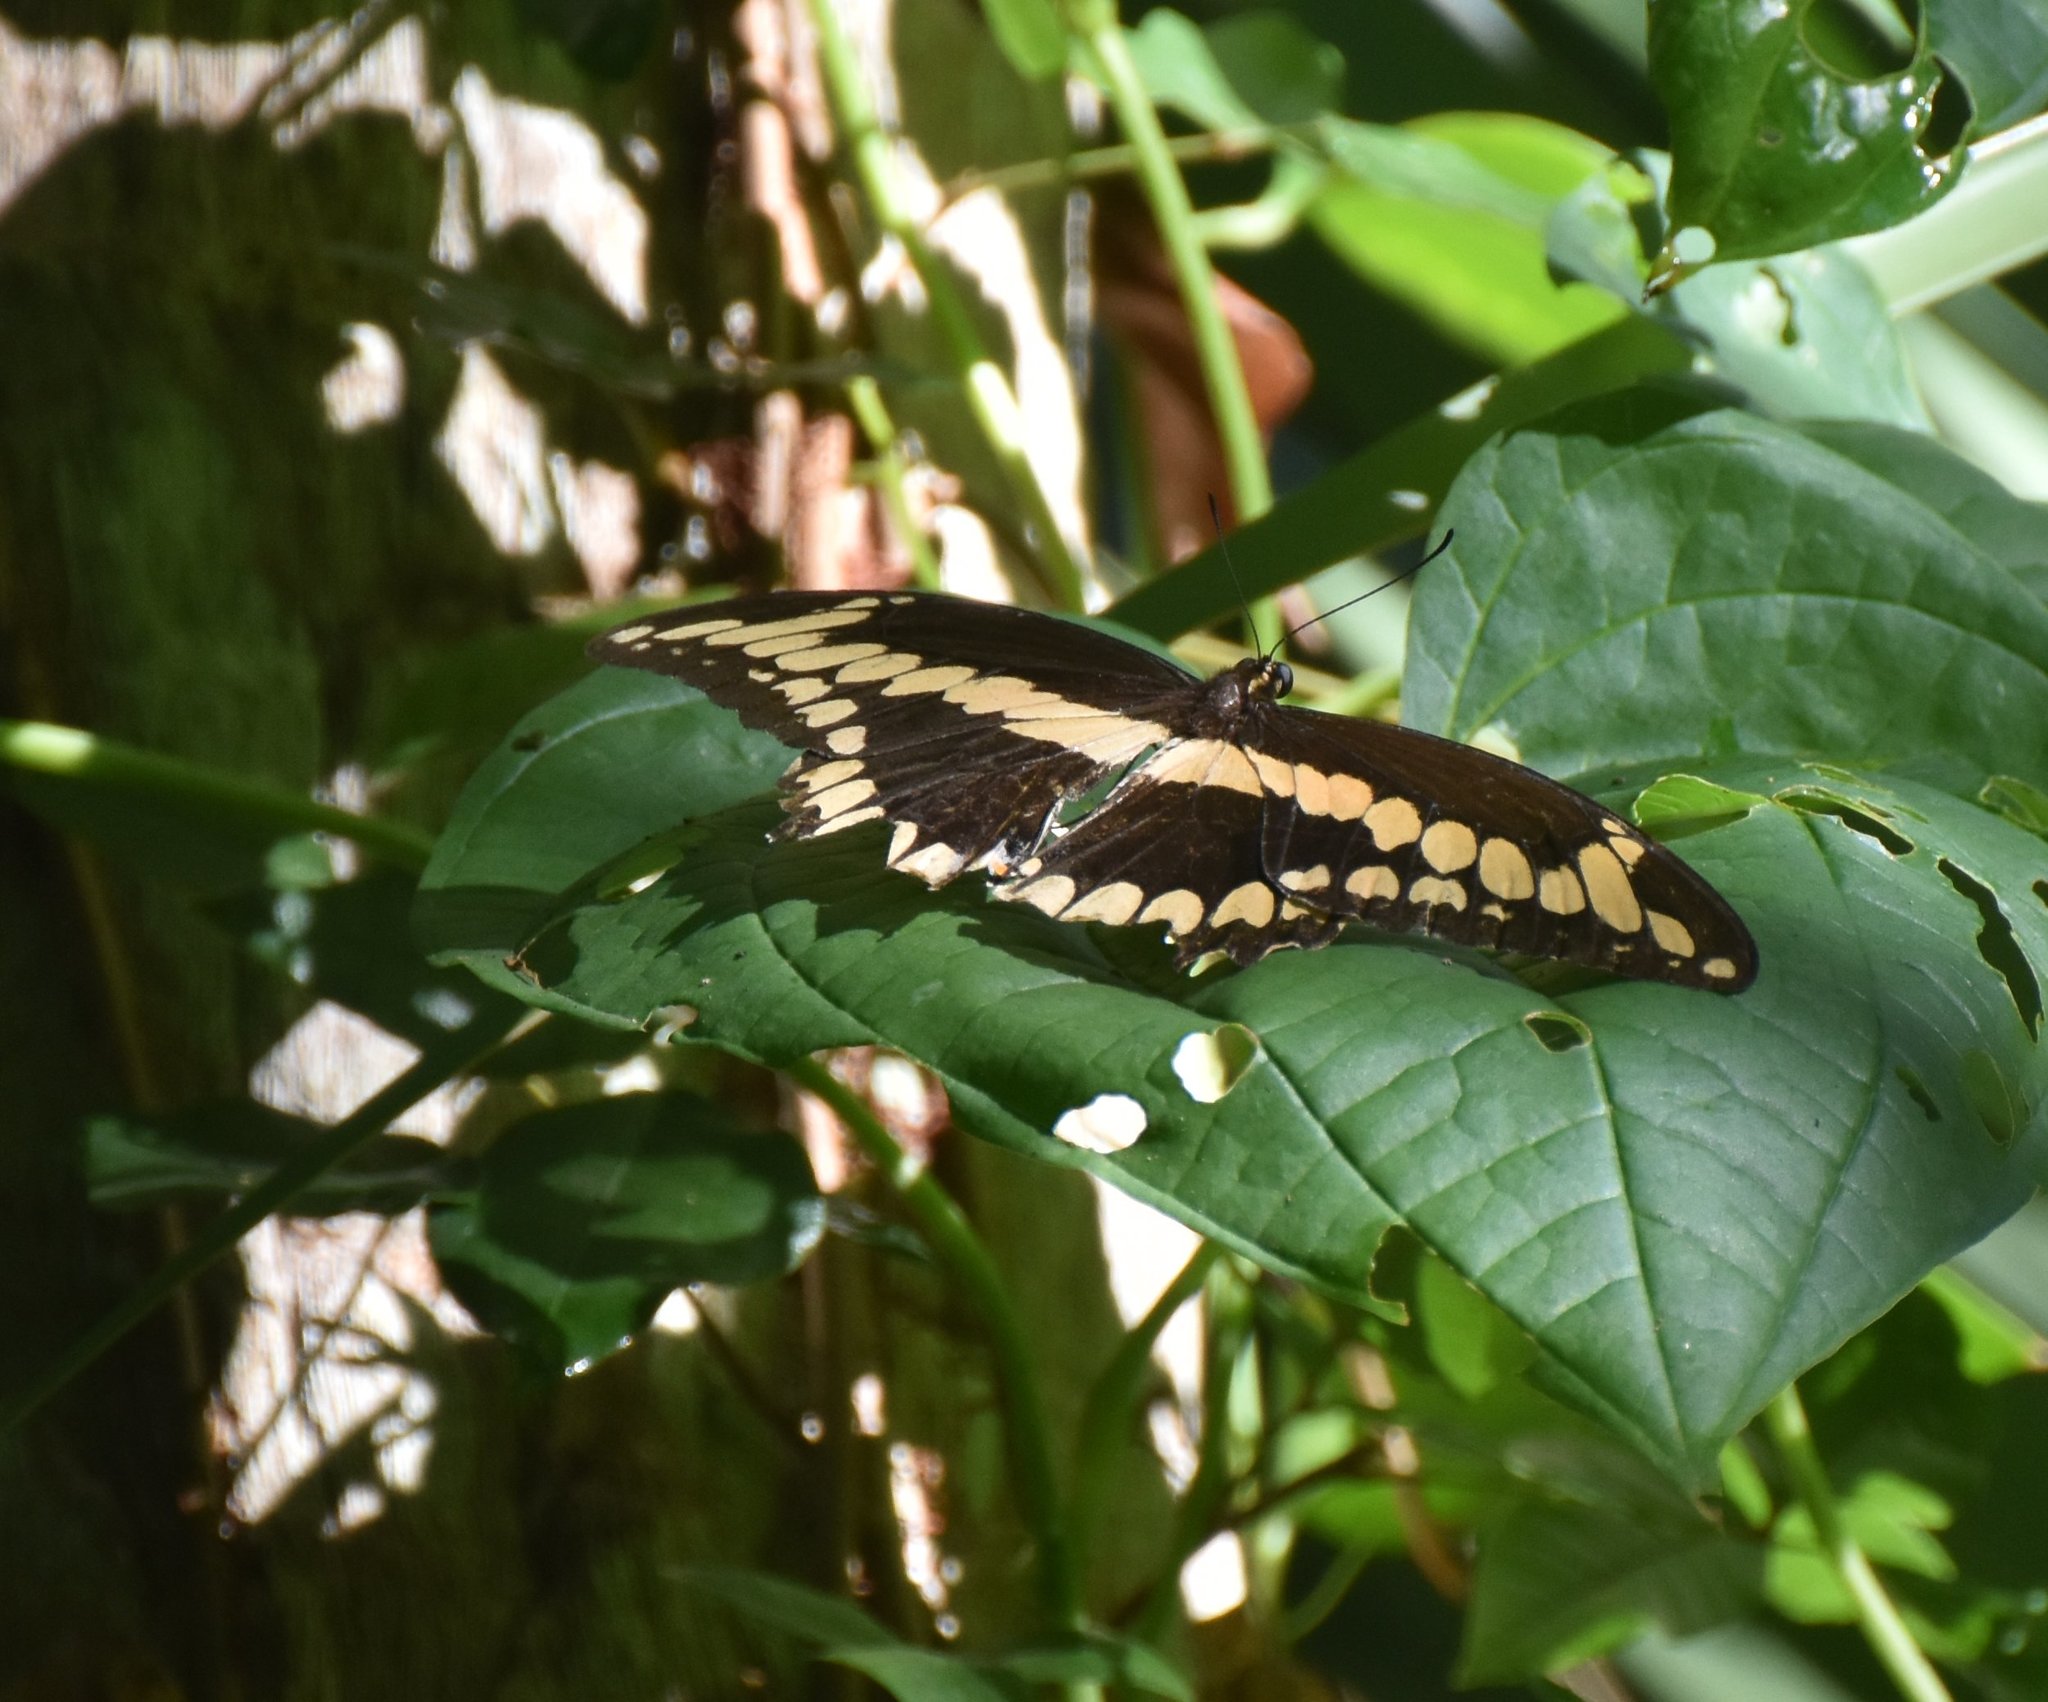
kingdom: Animalia
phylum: Arthropoda
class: Insecta
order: Lepidoptera
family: Papilionidae
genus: Papilio
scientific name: Papilio cresphontes
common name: Giant swallowtail
